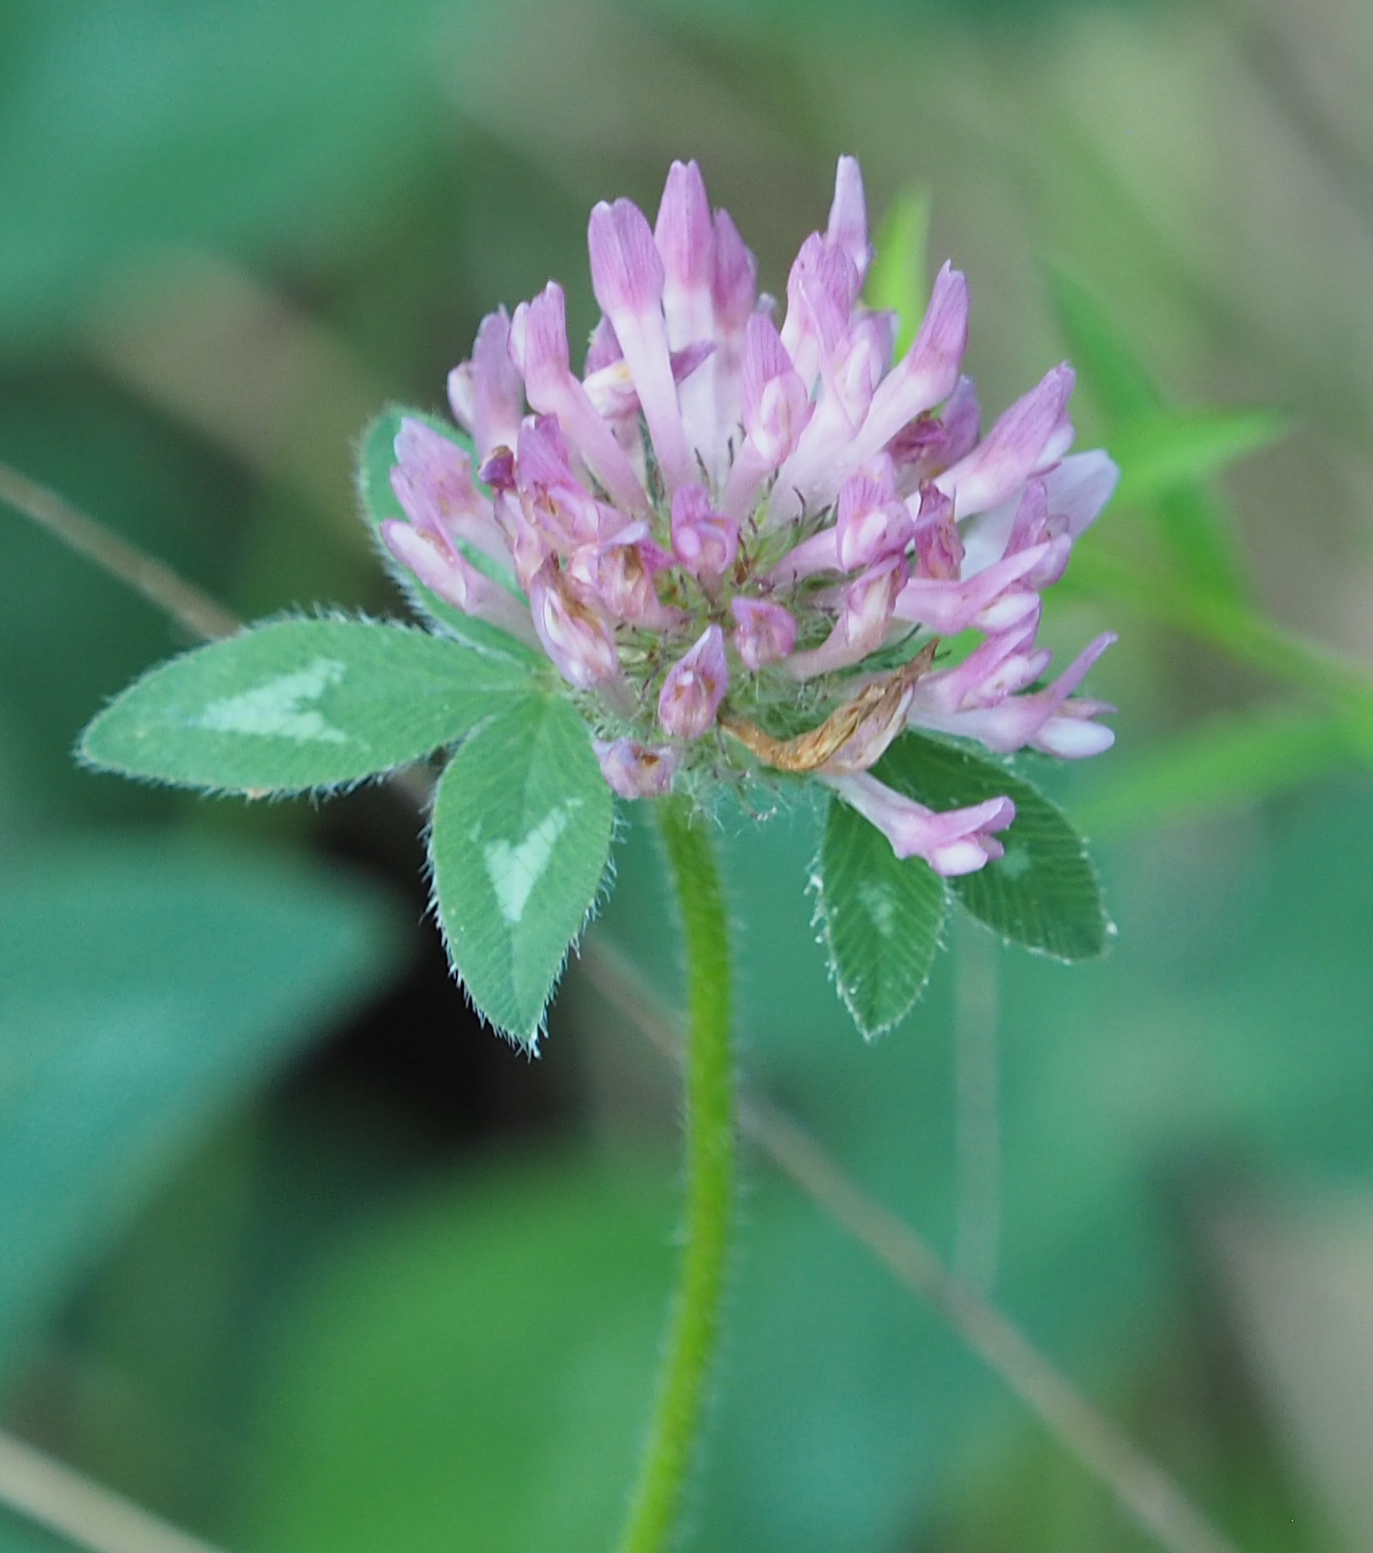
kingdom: Plantae
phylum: Tracheophyta
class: Magnoliopsida
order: Fabales
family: Fabaceae
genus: Trifolium
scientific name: Trifolium pratense
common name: Red clover
